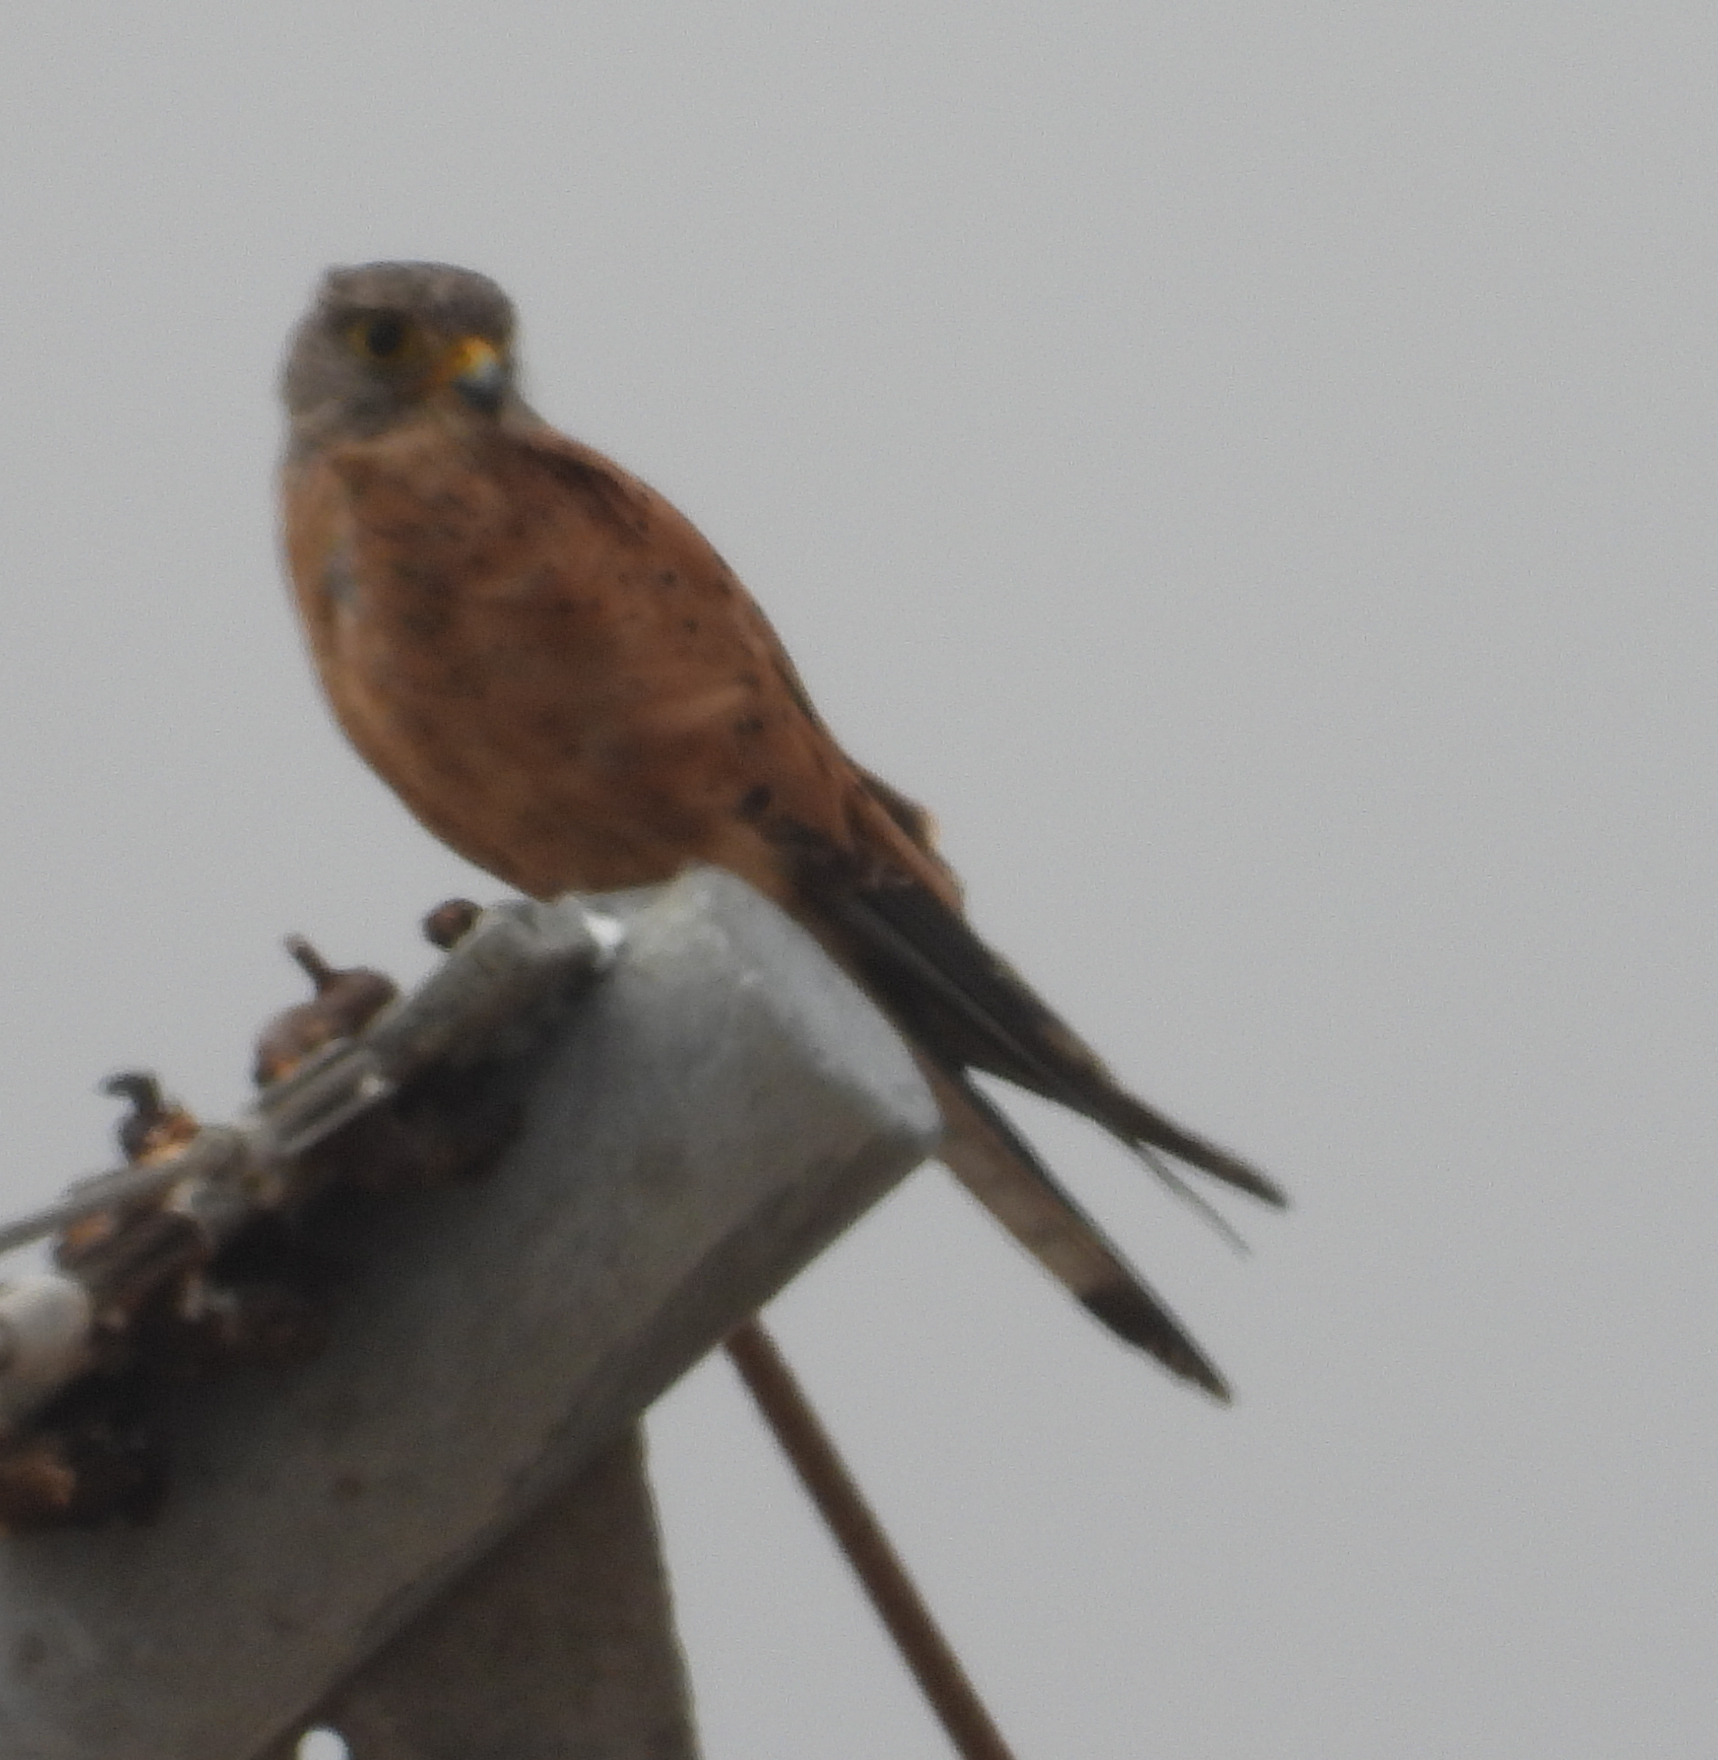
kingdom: Animalia
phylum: Chordata
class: Aves
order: Falconiformes
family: Falconidae
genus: Falco
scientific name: Falco rupicolus
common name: Rock kestrel
